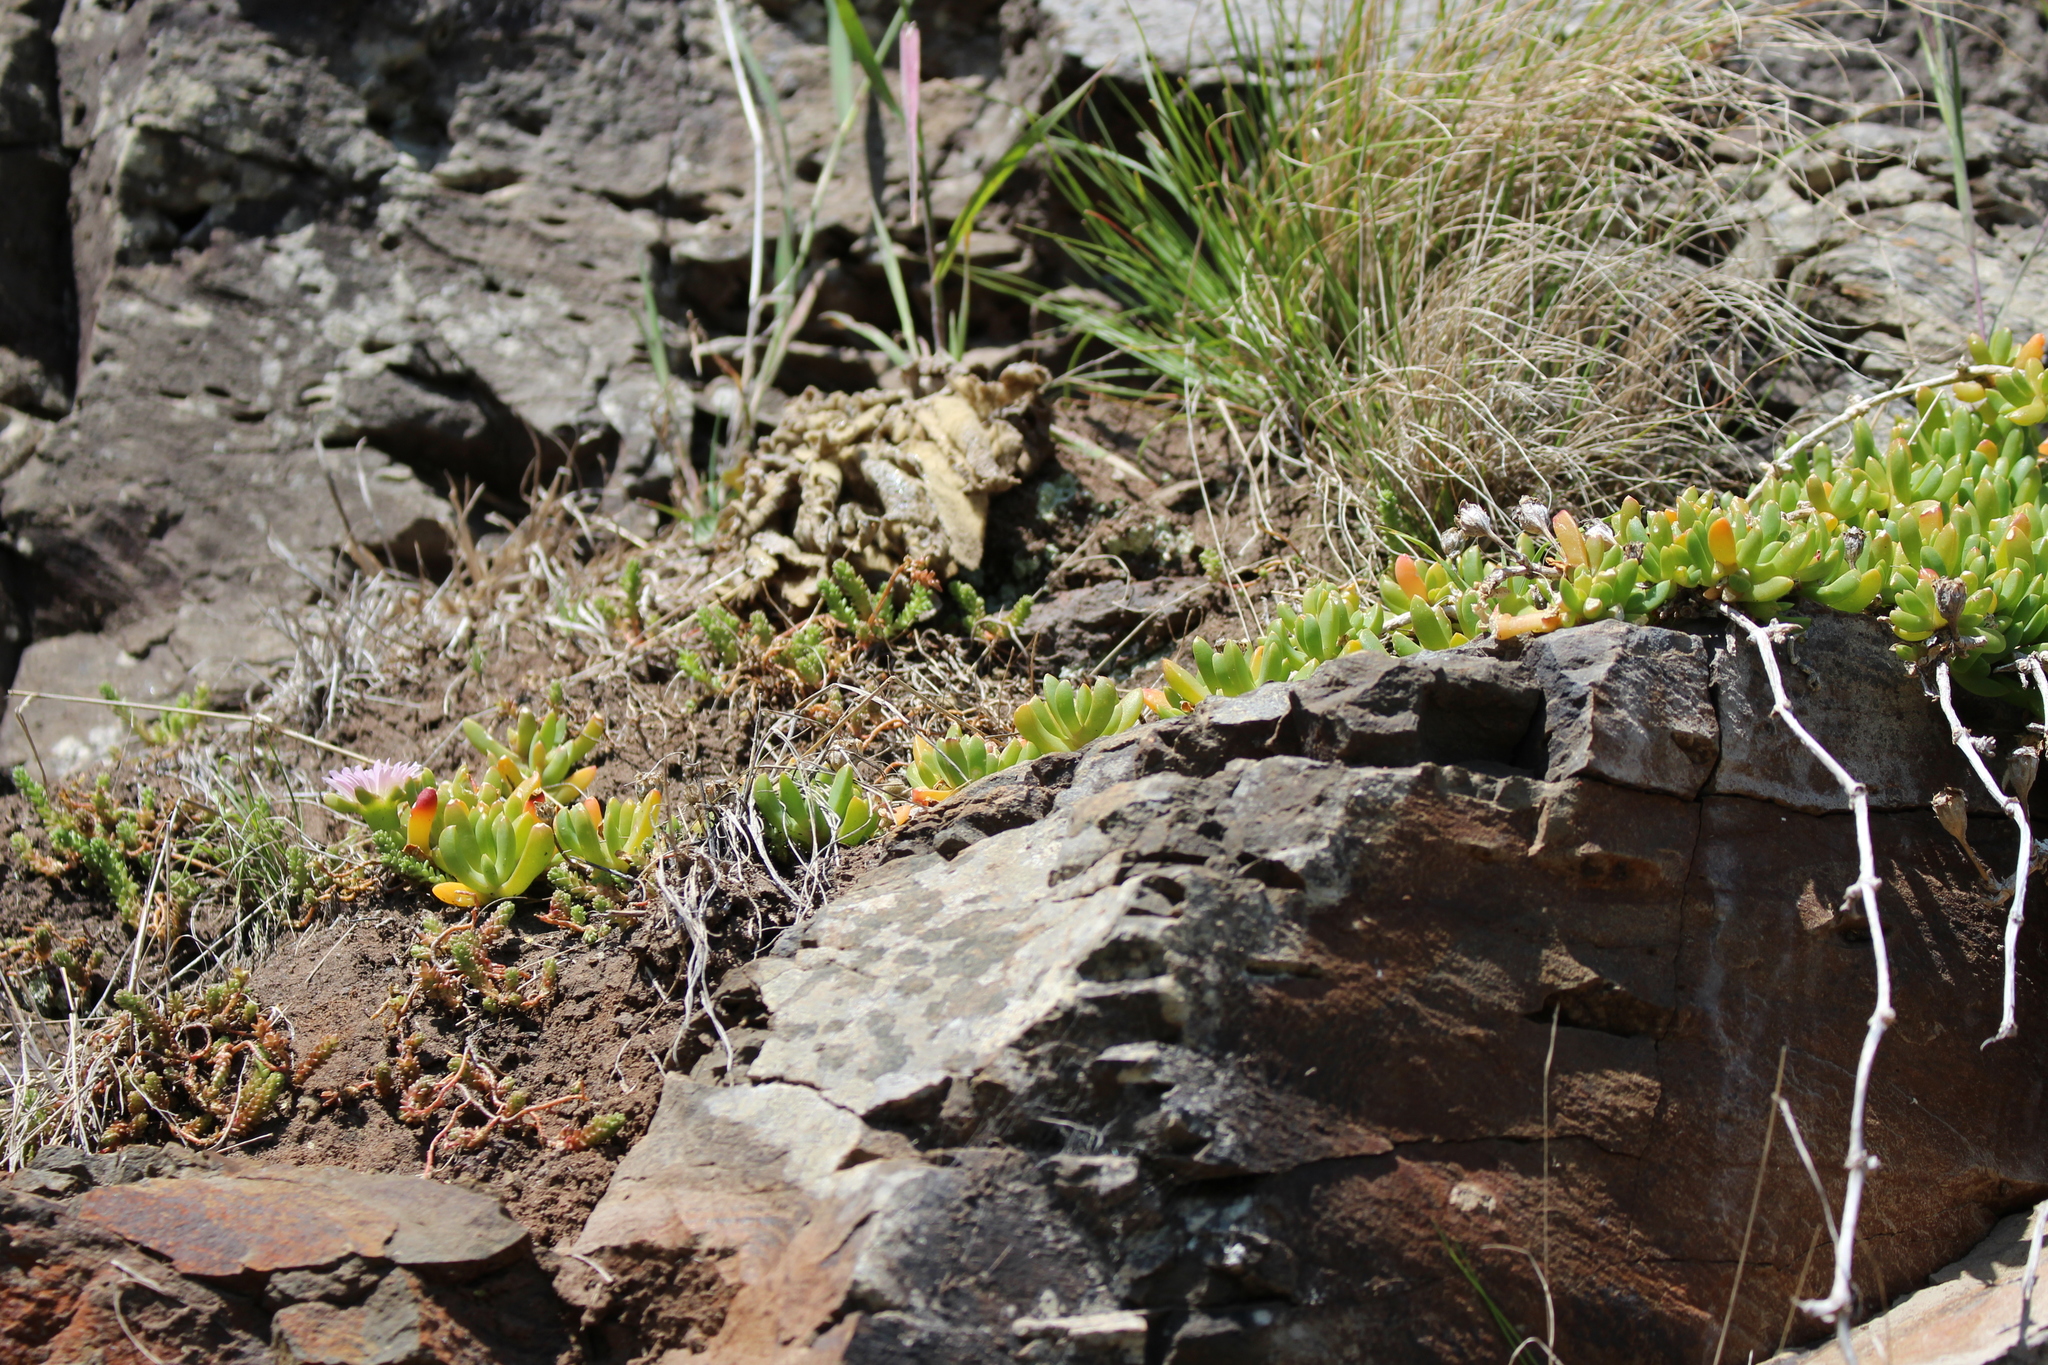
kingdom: Plantae
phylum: Tracheophyta
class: Magnoliopsida
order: Caryophyllales
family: Aizoaceae
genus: Disphyma
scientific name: Disphyma australe
